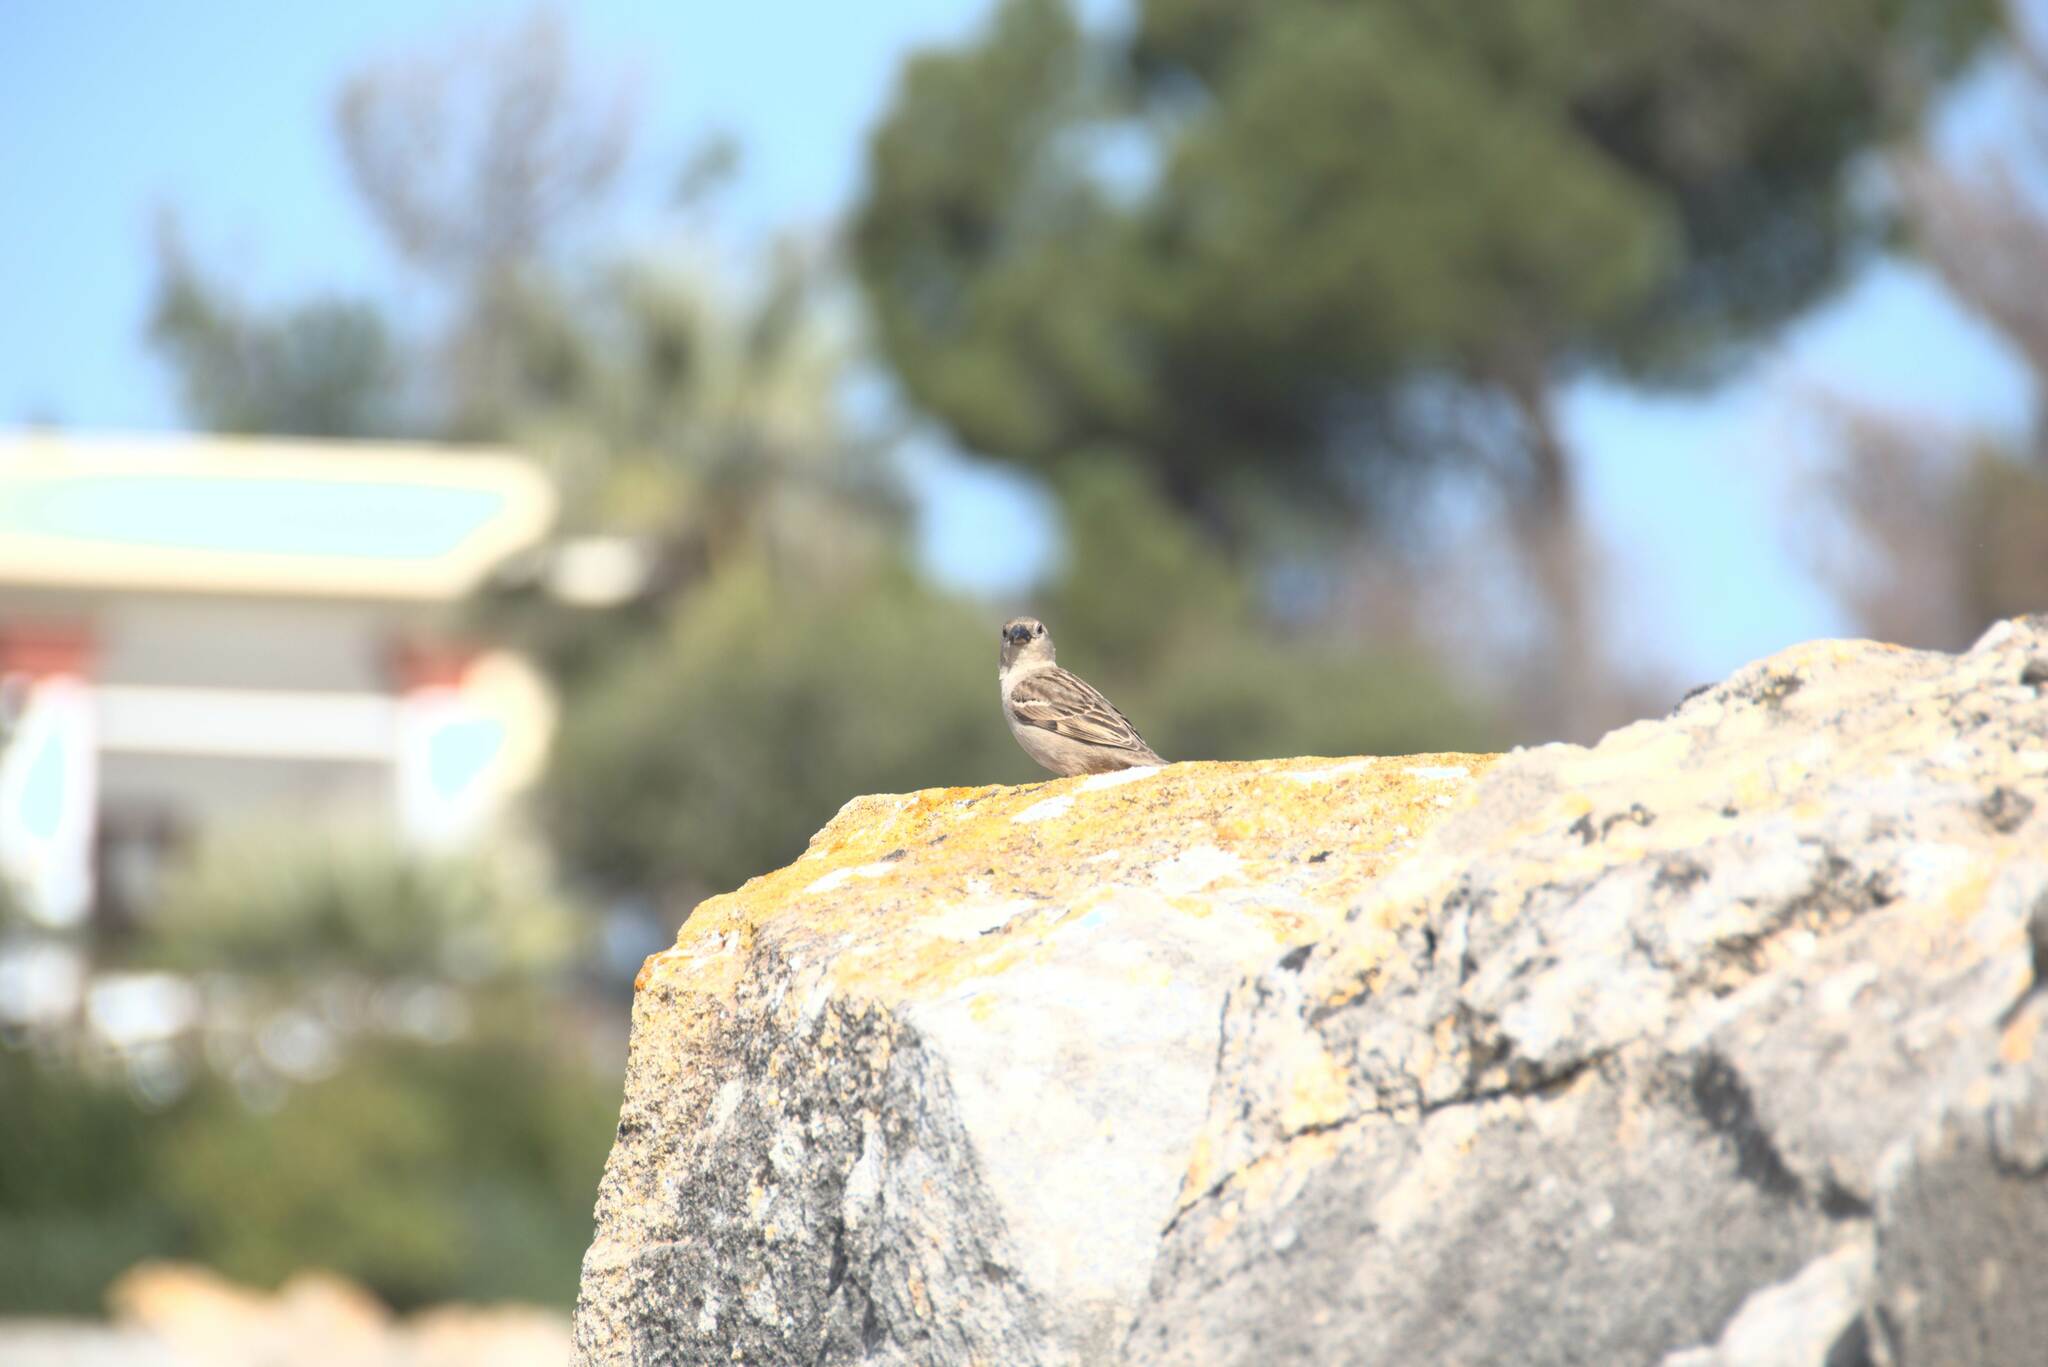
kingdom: Animalia
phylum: Chordata
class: Aves
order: Passeriformes
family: Passeridae
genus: Passer
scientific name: Passer
